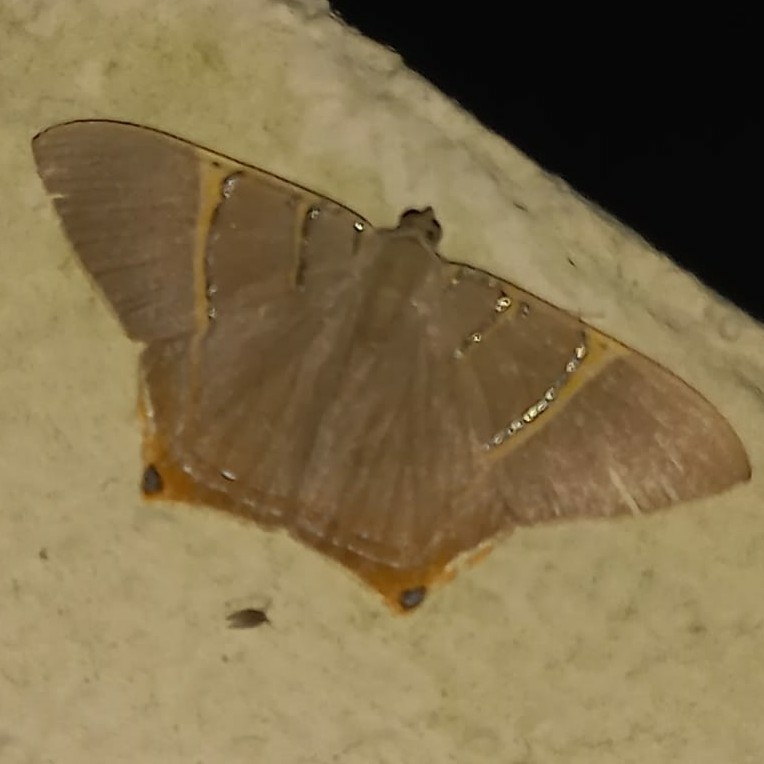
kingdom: Animalia
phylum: Arthropoda
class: Insecta
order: Lepidoptera
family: Geometridae
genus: Phrygionis
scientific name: Phrygionis polita
